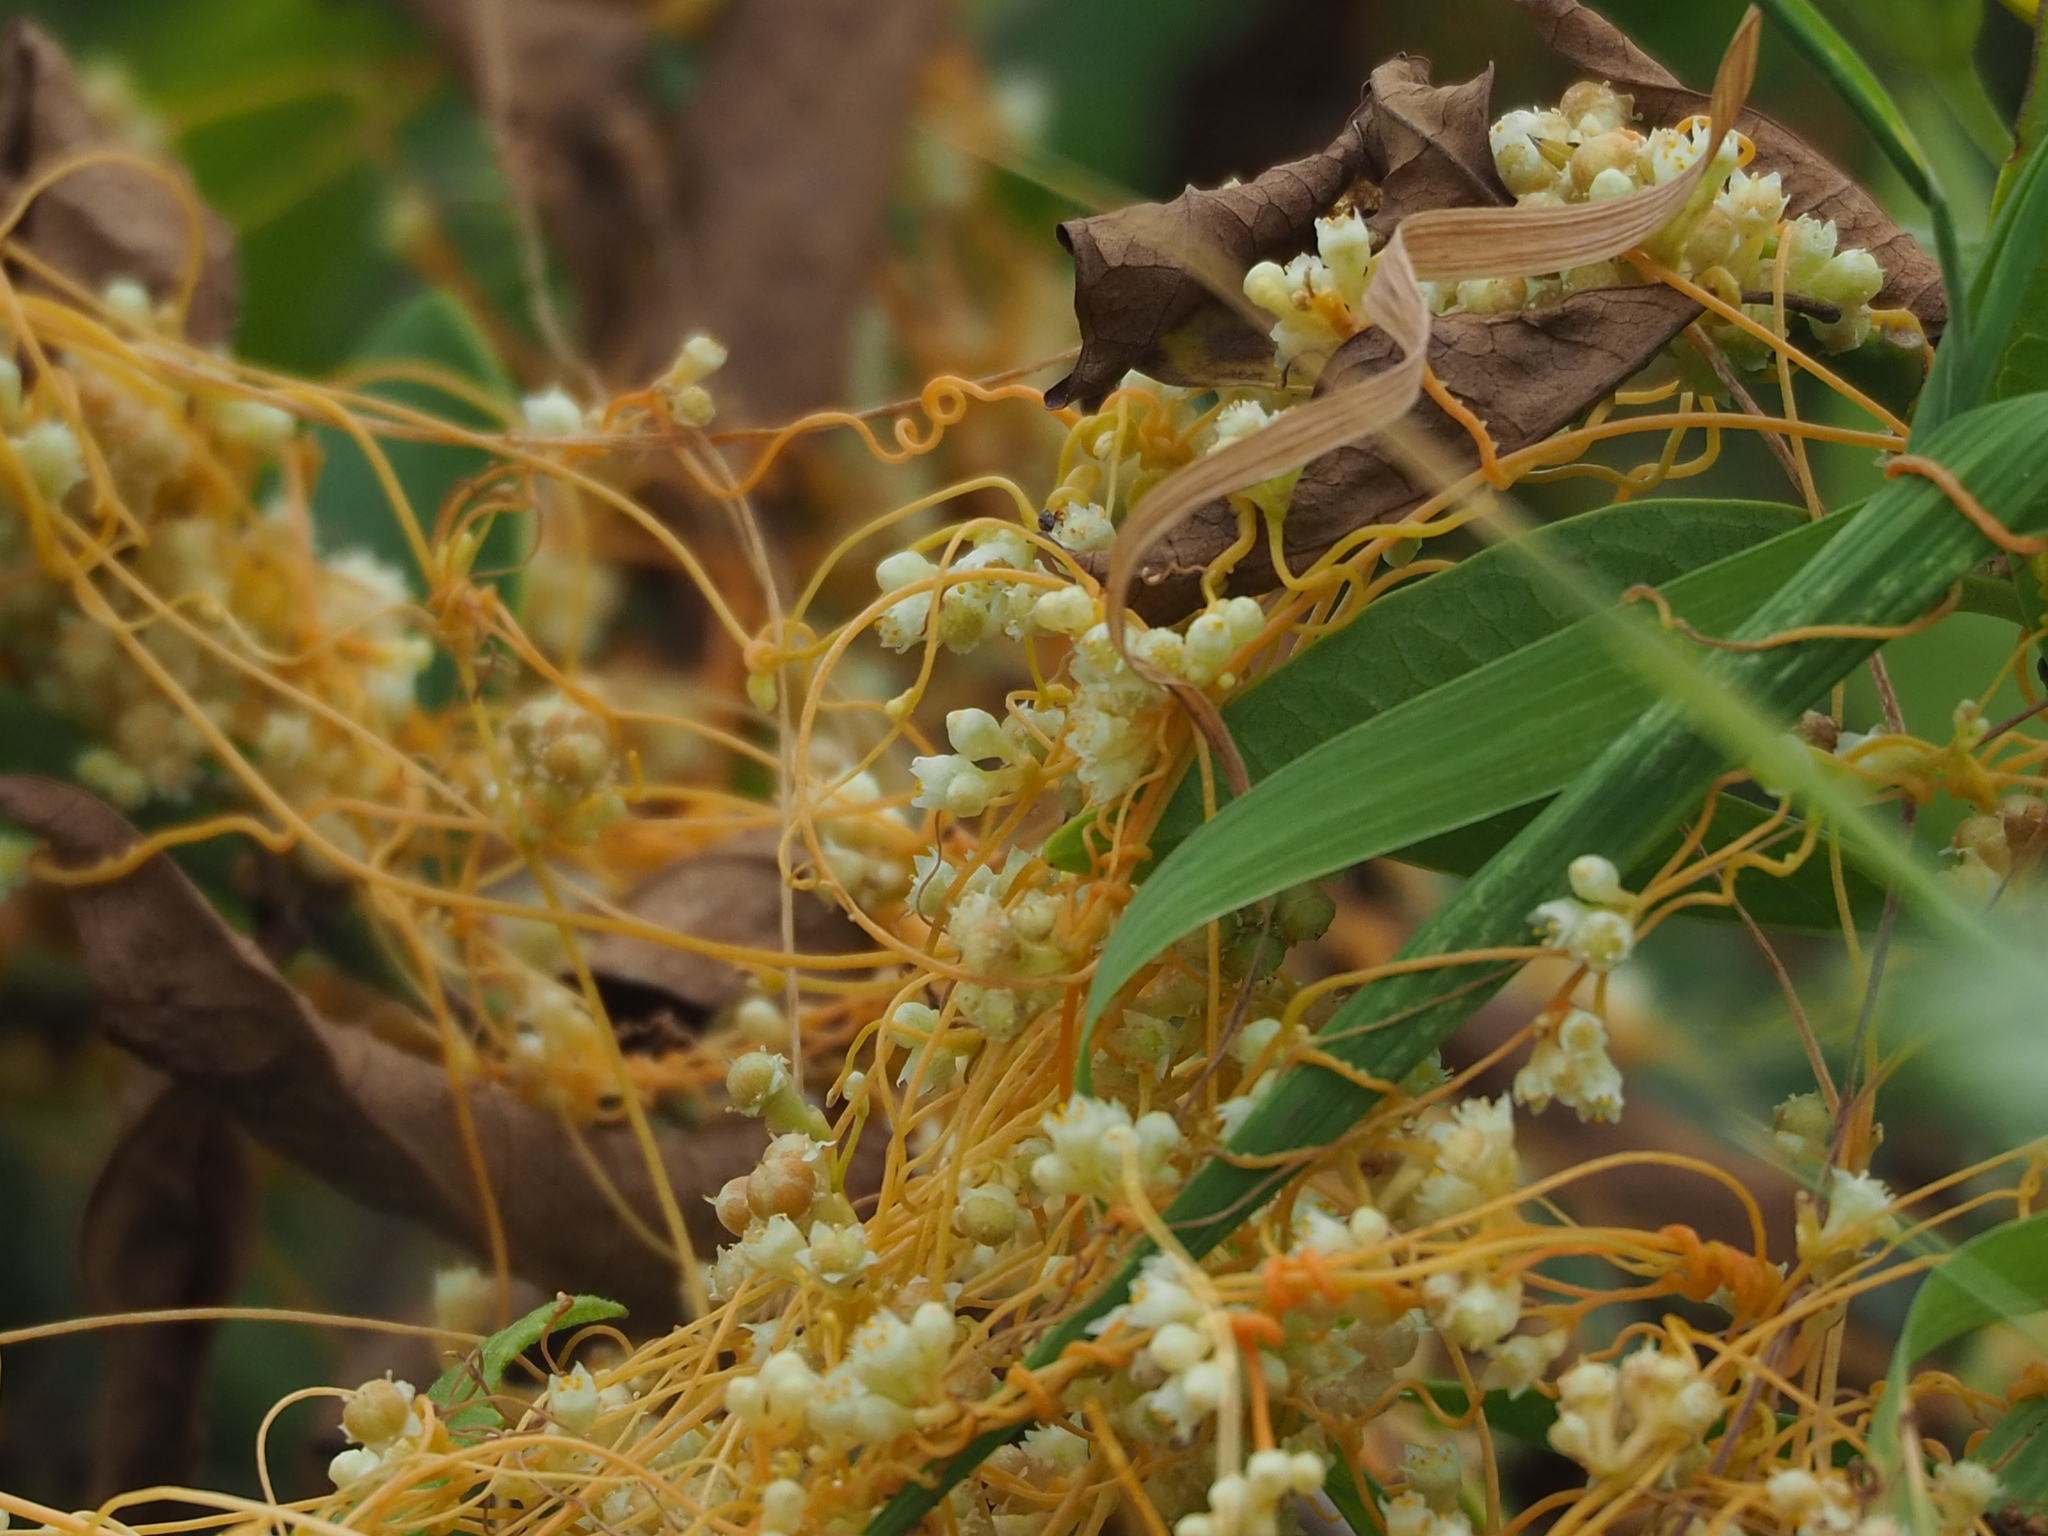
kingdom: Plantae
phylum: Tracheophyta
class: Magnoliopsida
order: Solanales
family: Convolvulaceae
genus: Cuscuta
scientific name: Cuscuta campestris
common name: Yellow dodder
